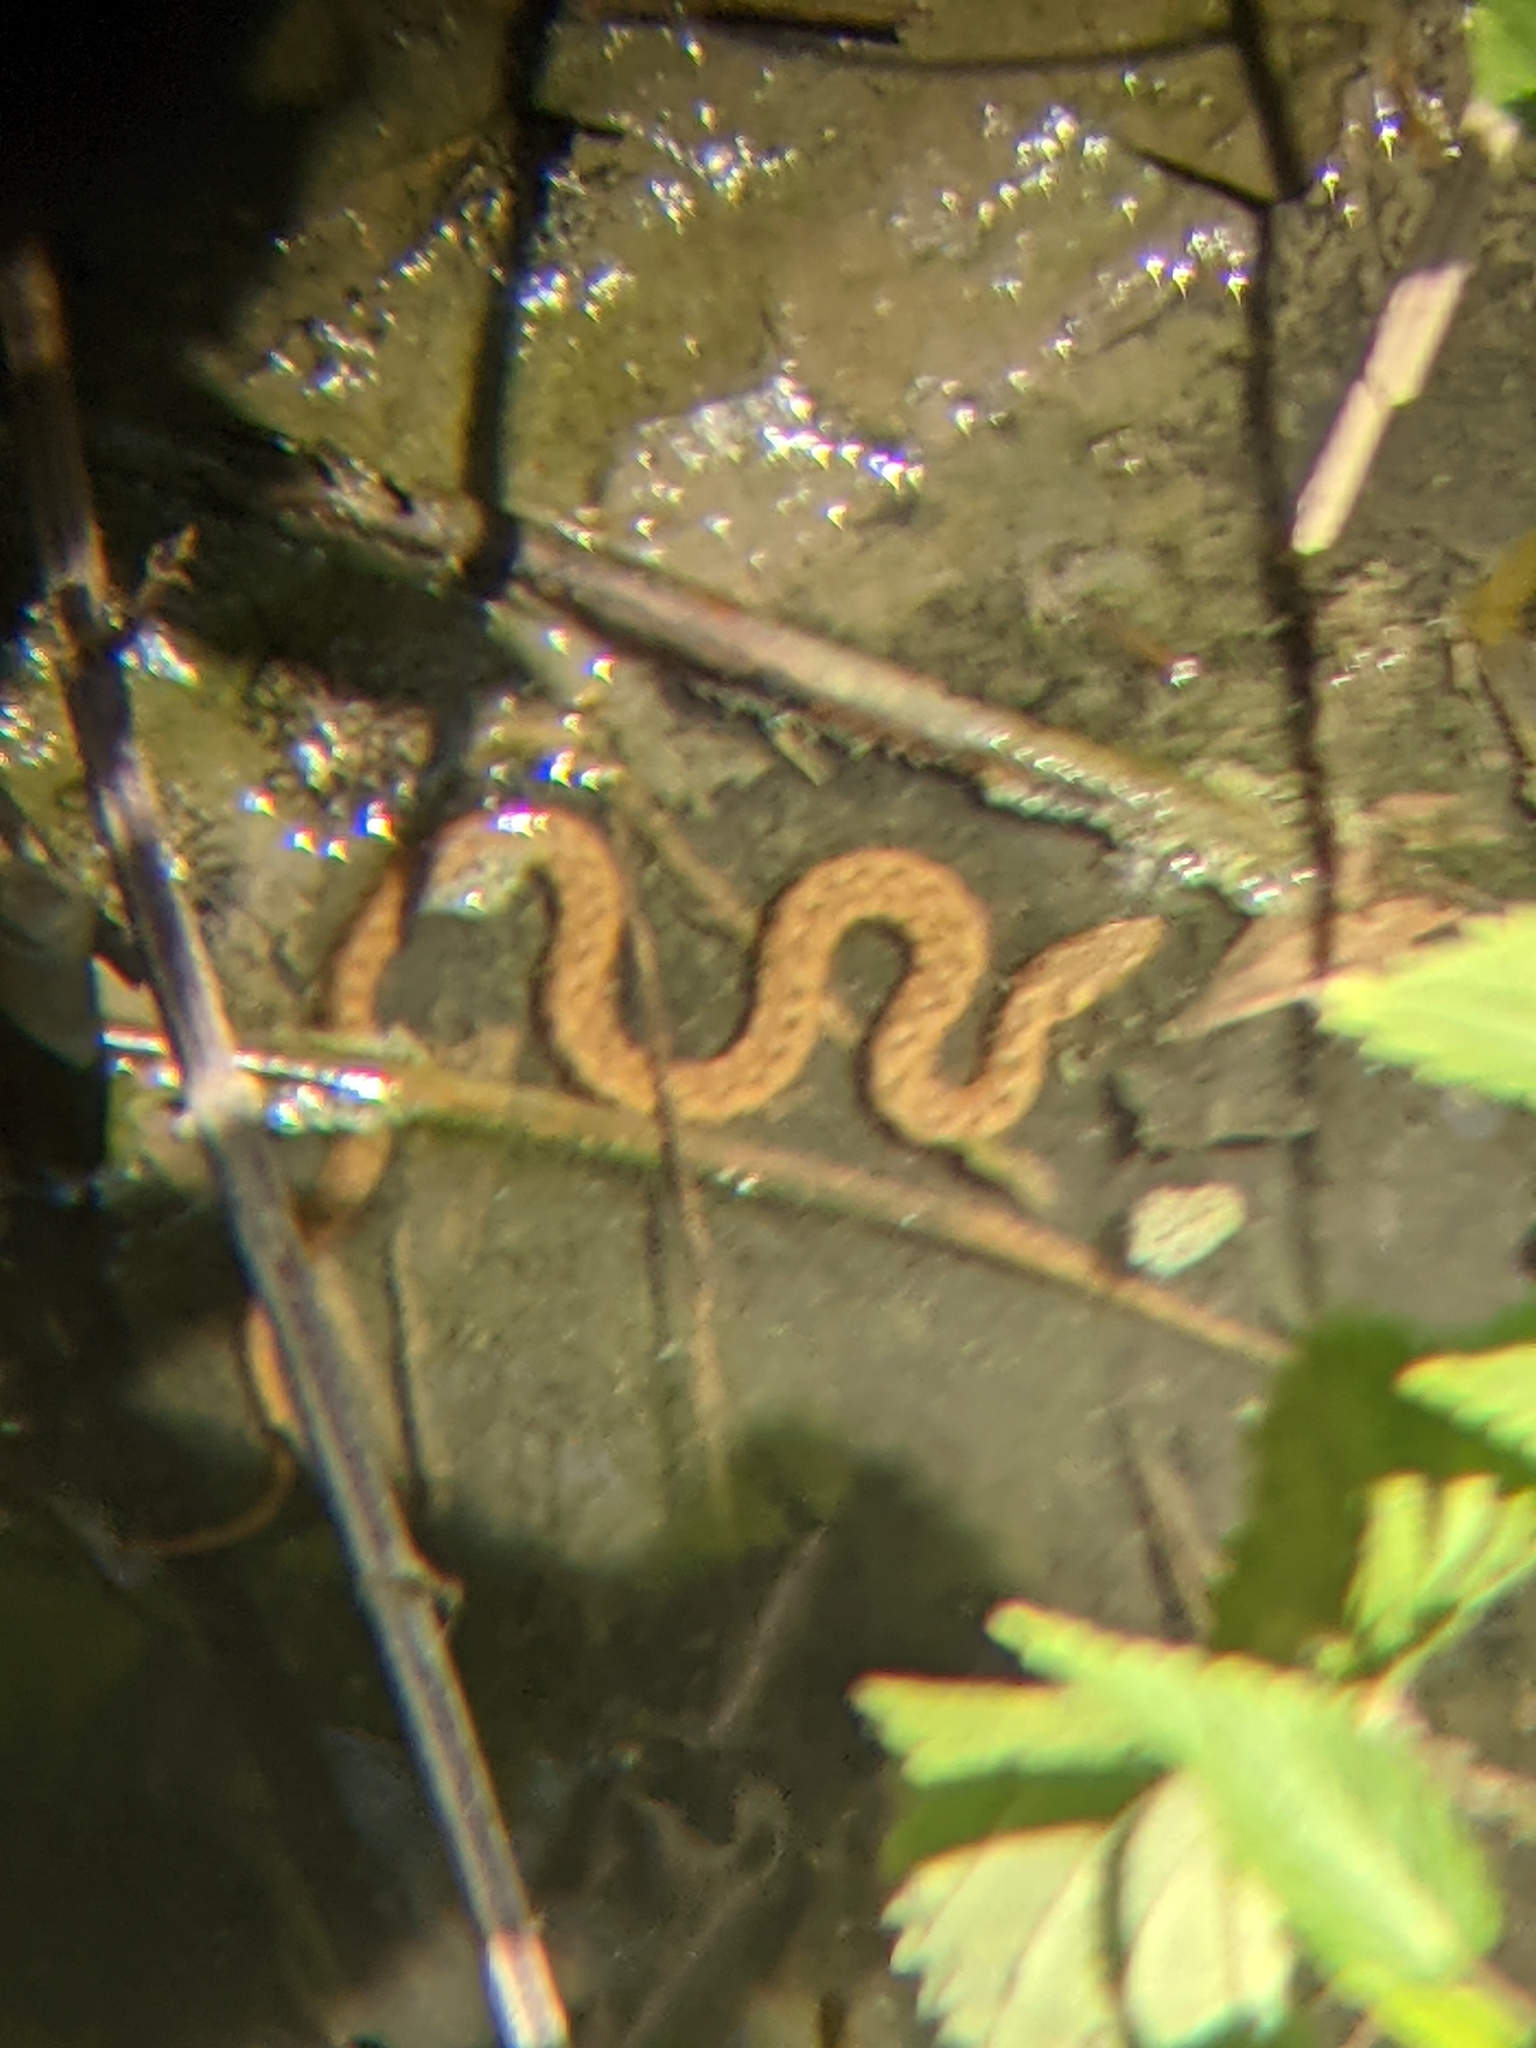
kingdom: Animalia
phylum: Chordata
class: Squamata
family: Colubridae
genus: Natrix
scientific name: Natrix maura
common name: Viperine water snake
